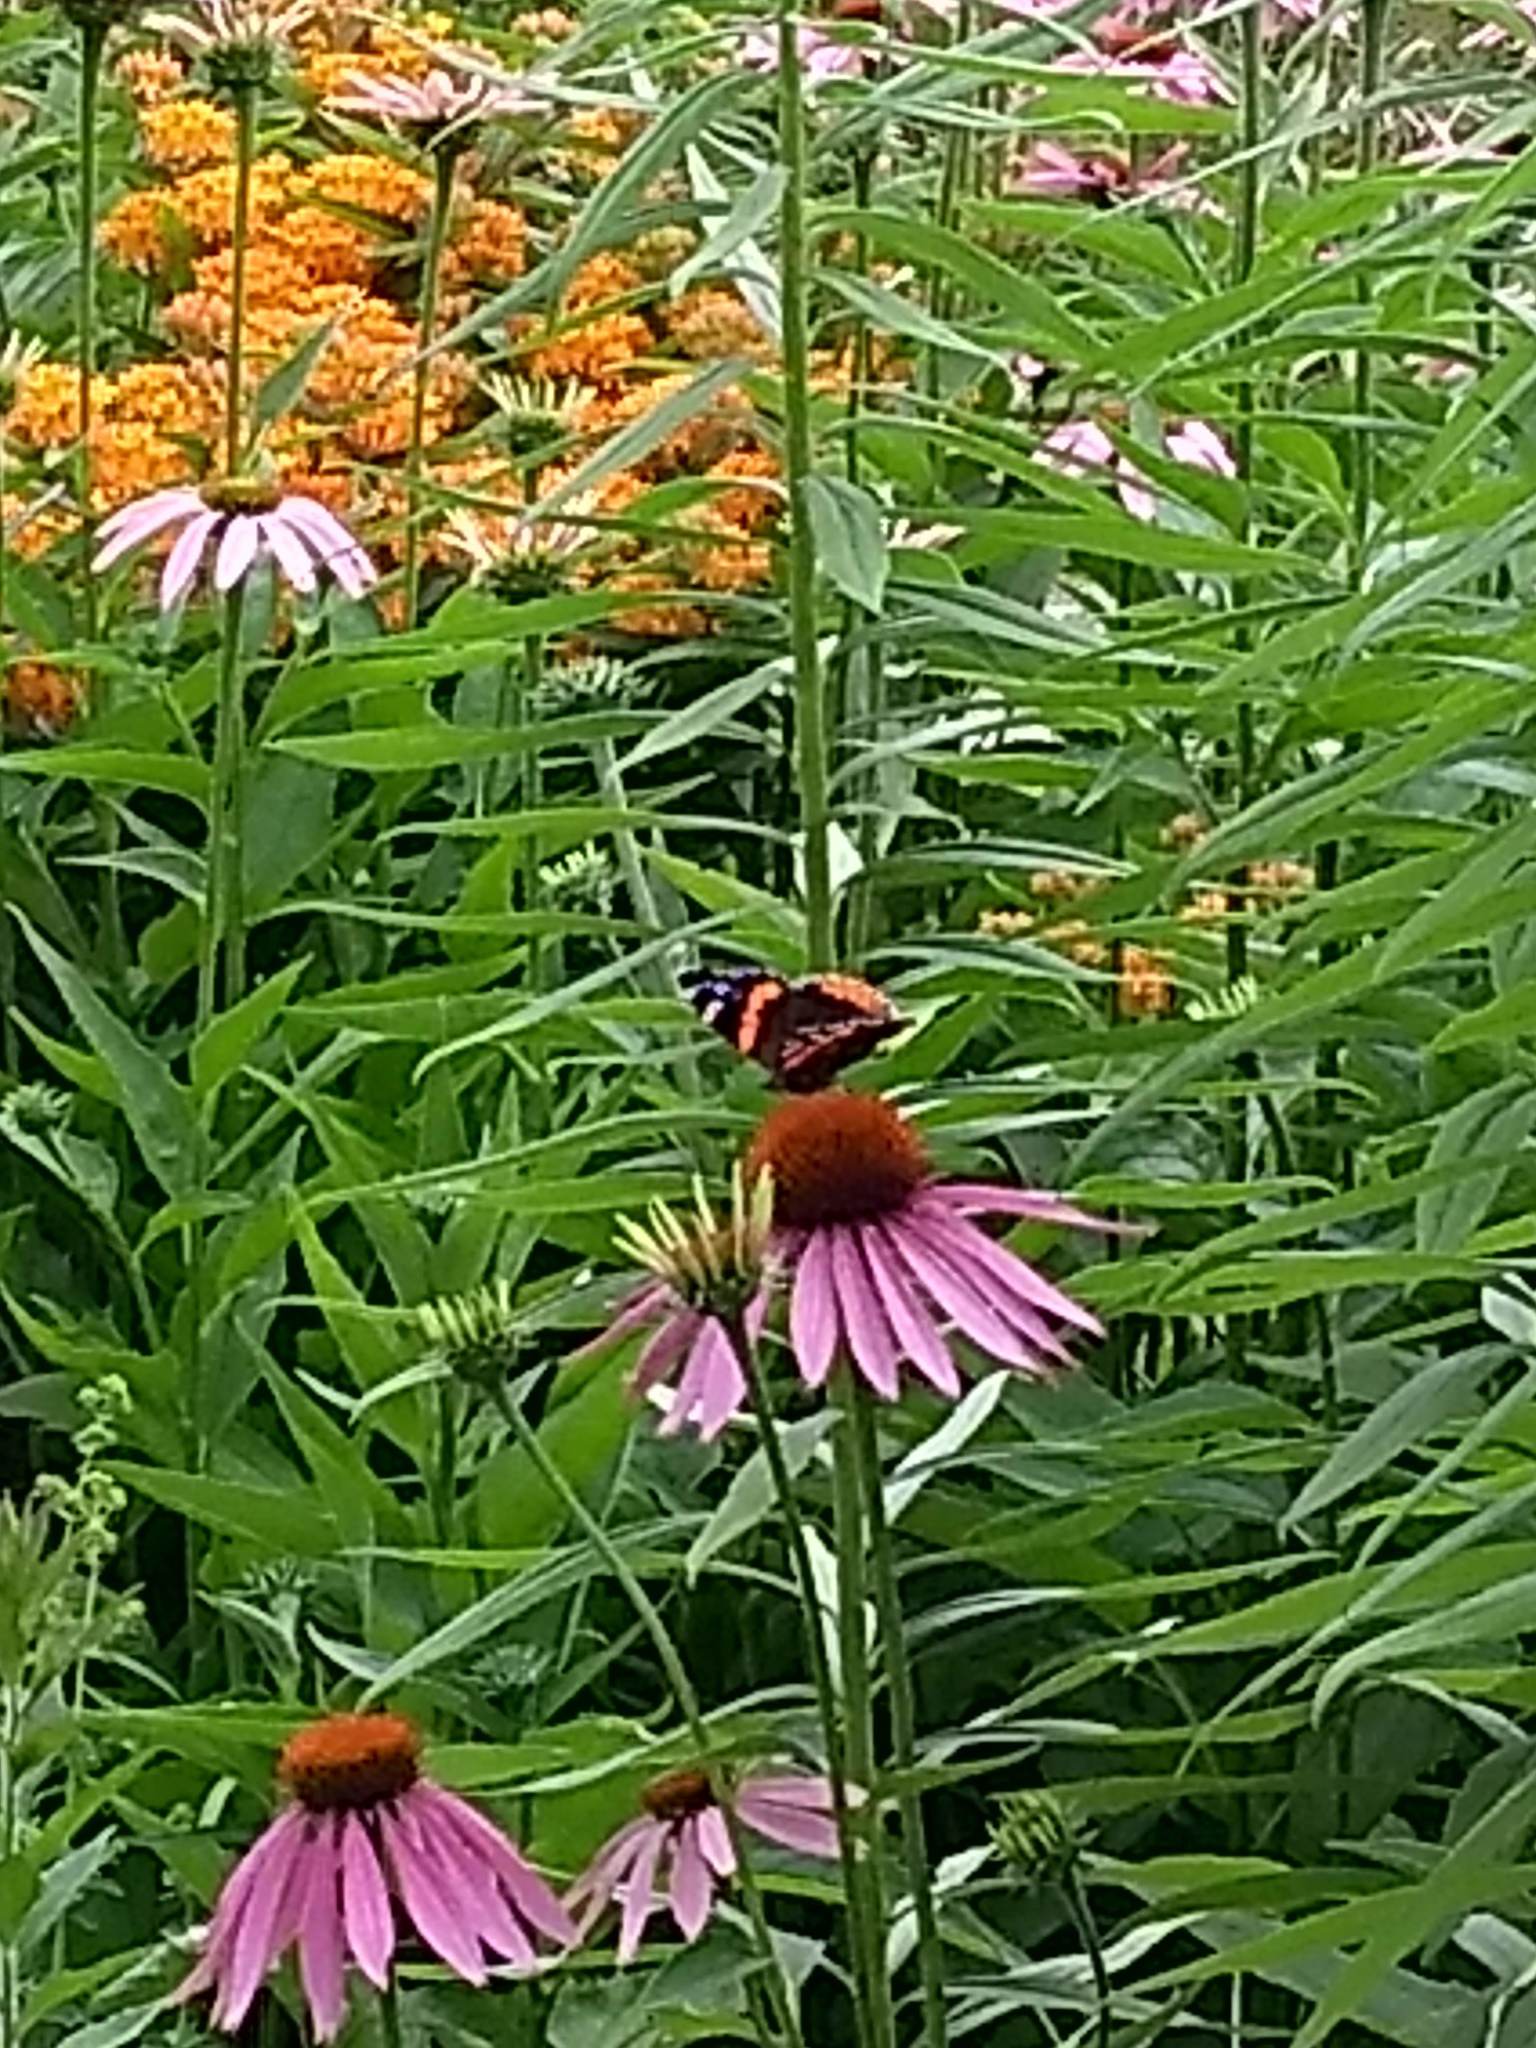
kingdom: Animalia
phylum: Arthropoda
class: Insecta
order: Lepidoptera
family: Nymphalidae
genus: Vanessa
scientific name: Vanessa atalanta
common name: Red admiral
